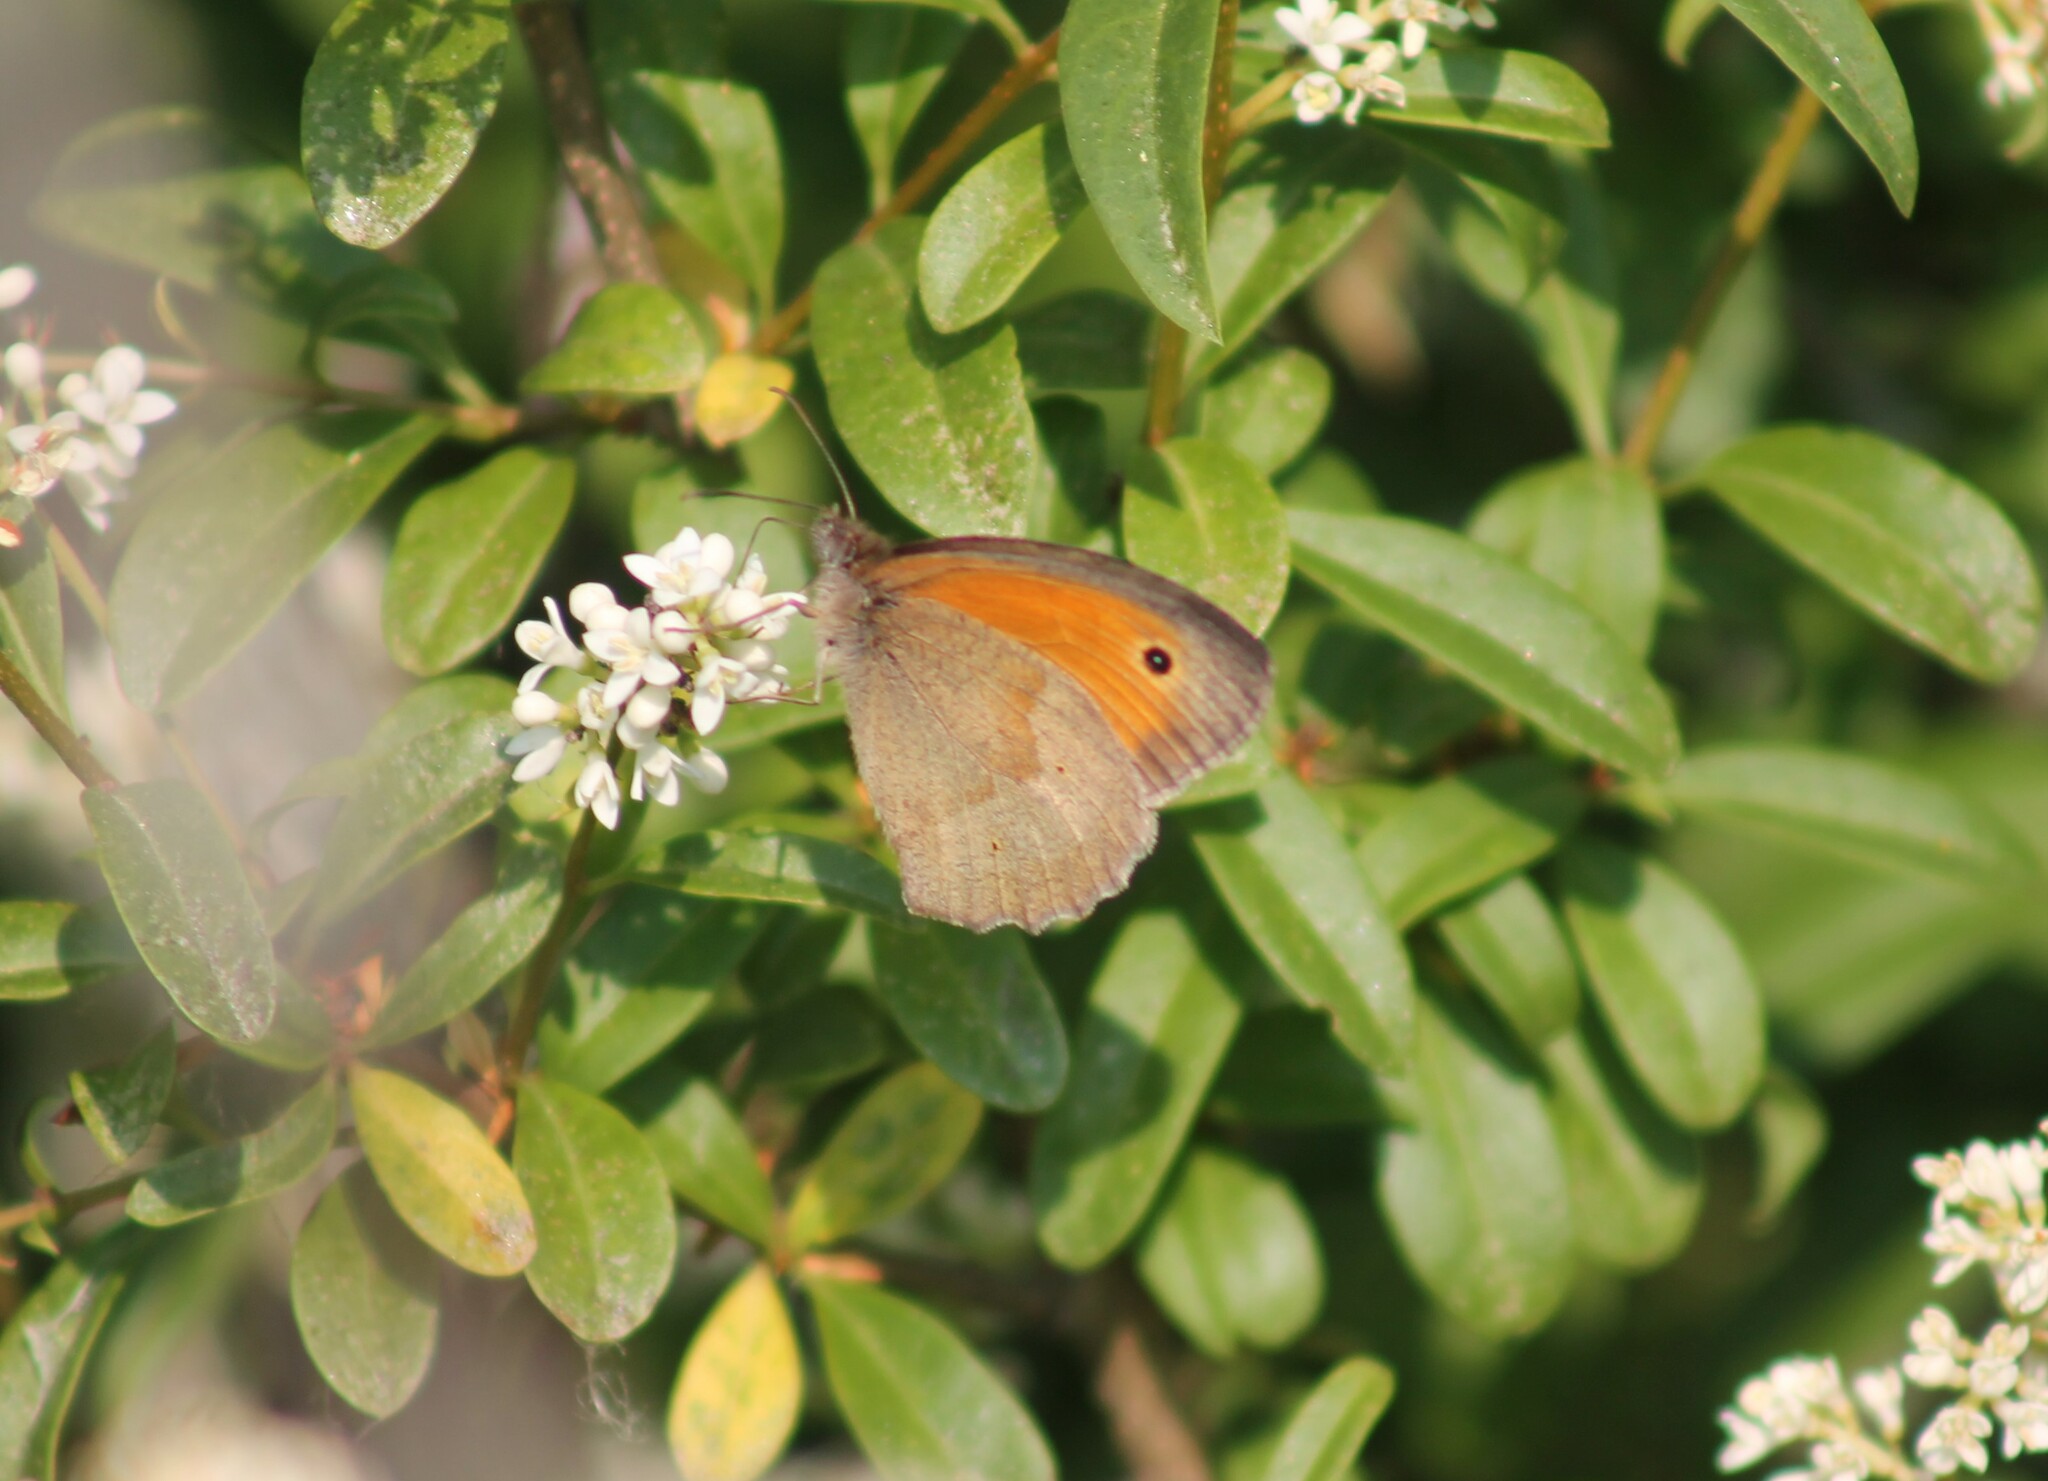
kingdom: Animalia
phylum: Arthropoda
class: Insecta
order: Lepidoptera
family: Nymphalidae
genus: Maniola
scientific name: Maniola jurtina
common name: Meadow brown
